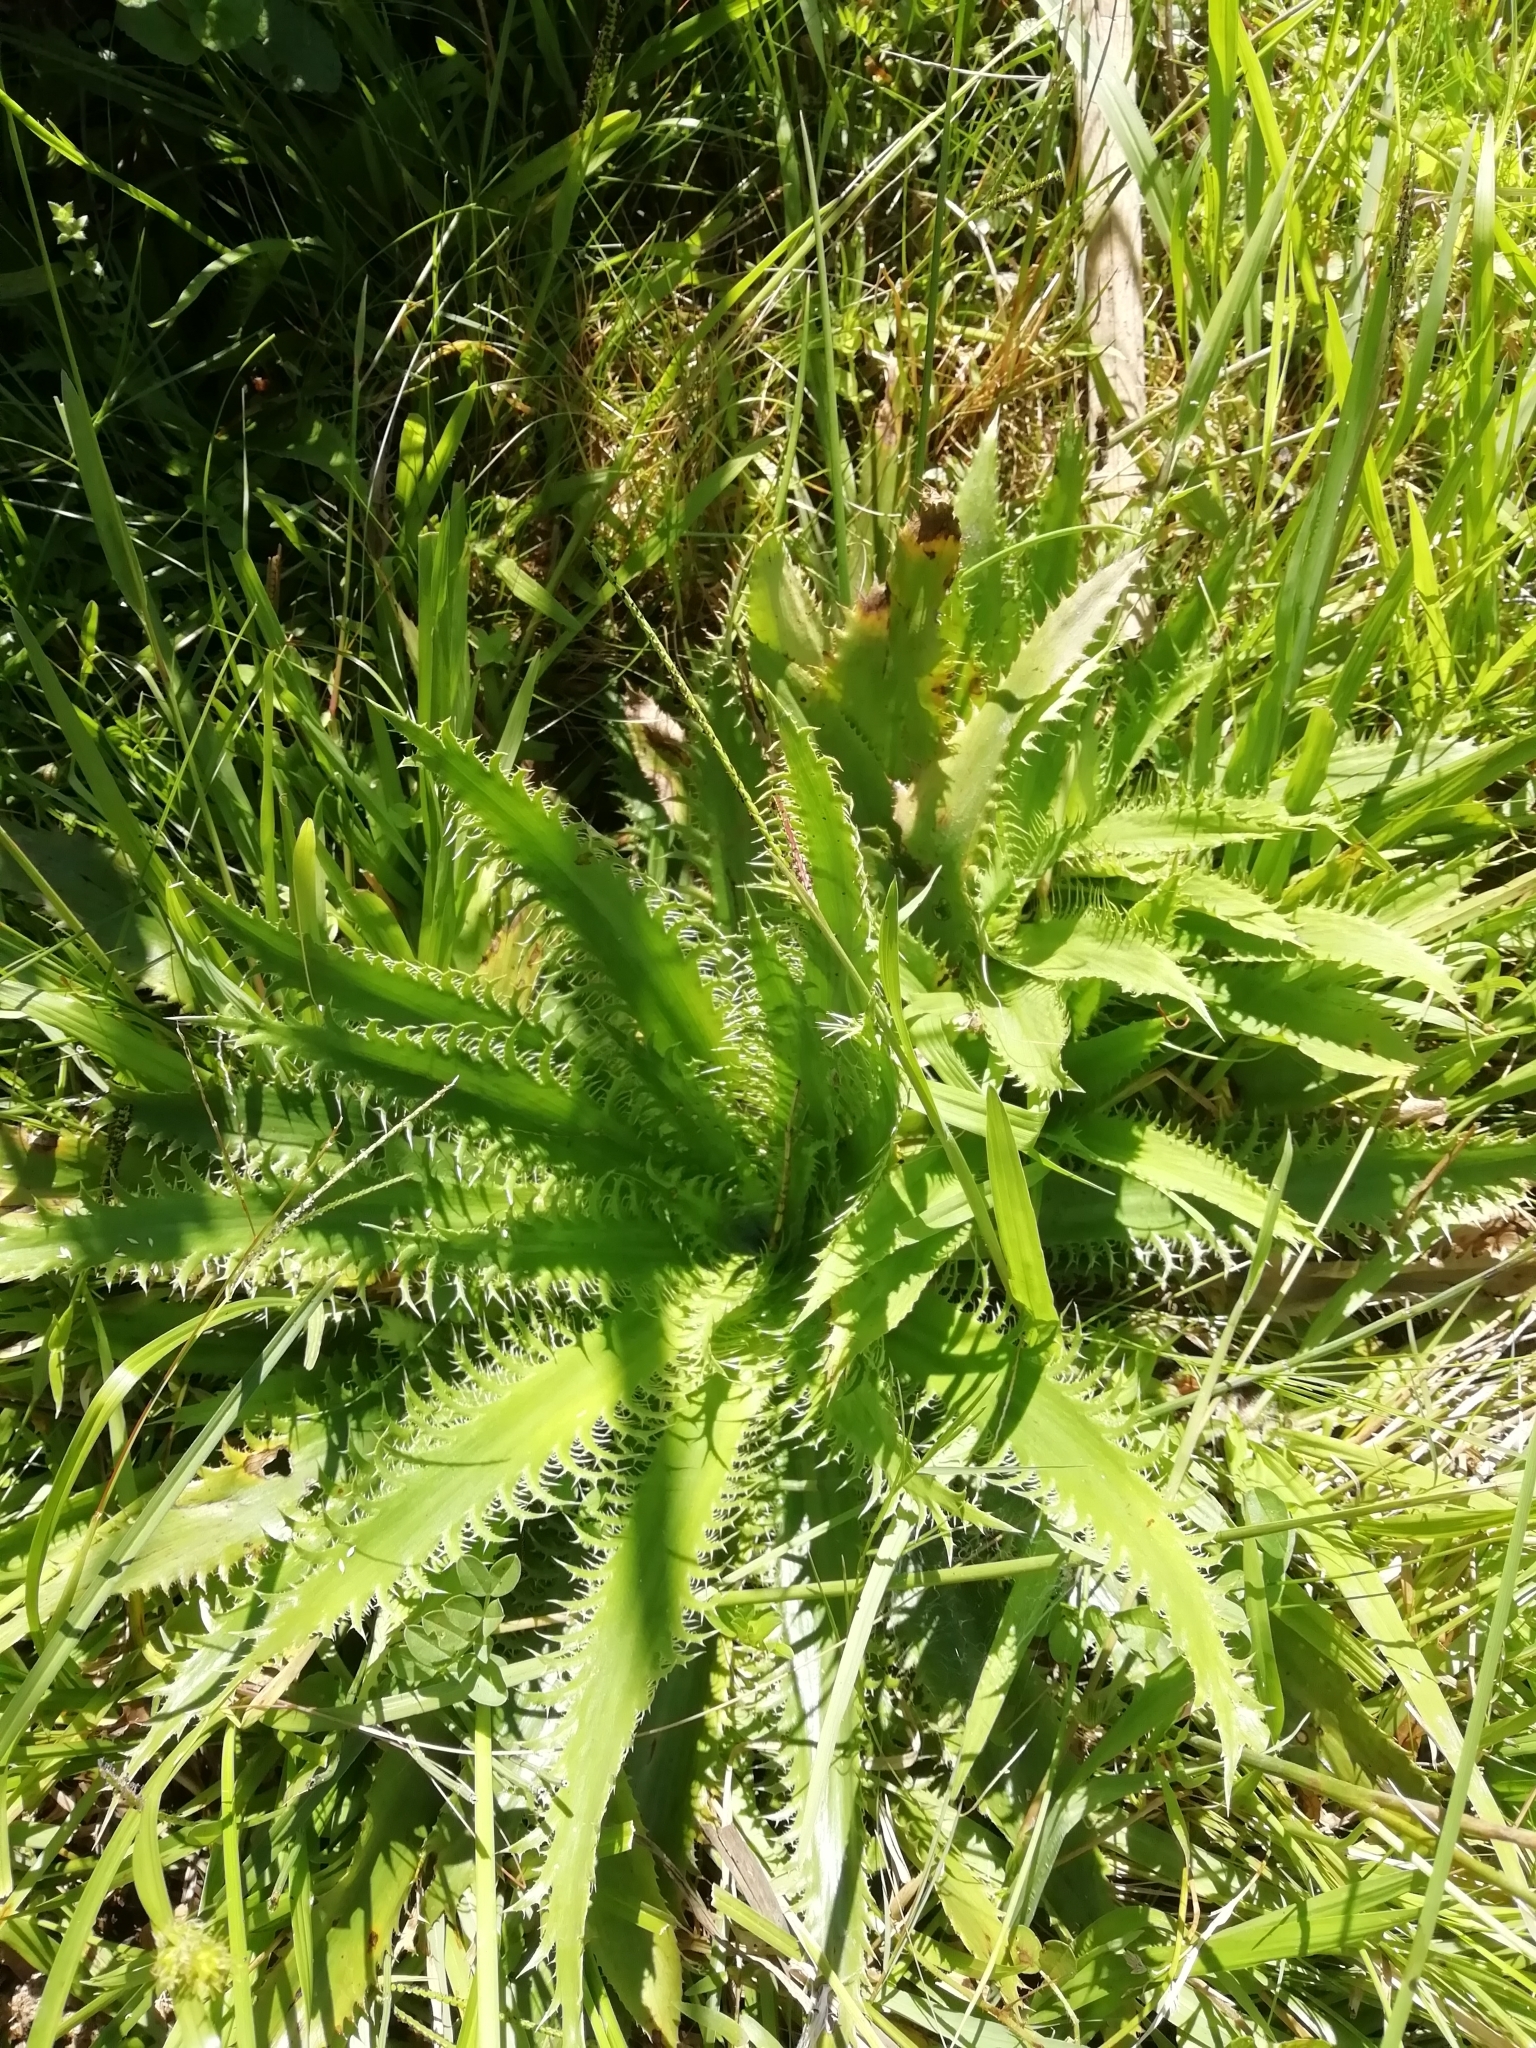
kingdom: Plantae
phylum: Tracheophyta
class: Magnoliopsida
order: Apiales
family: Apiaceae
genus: Eryngium
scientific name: Eryngium serra
